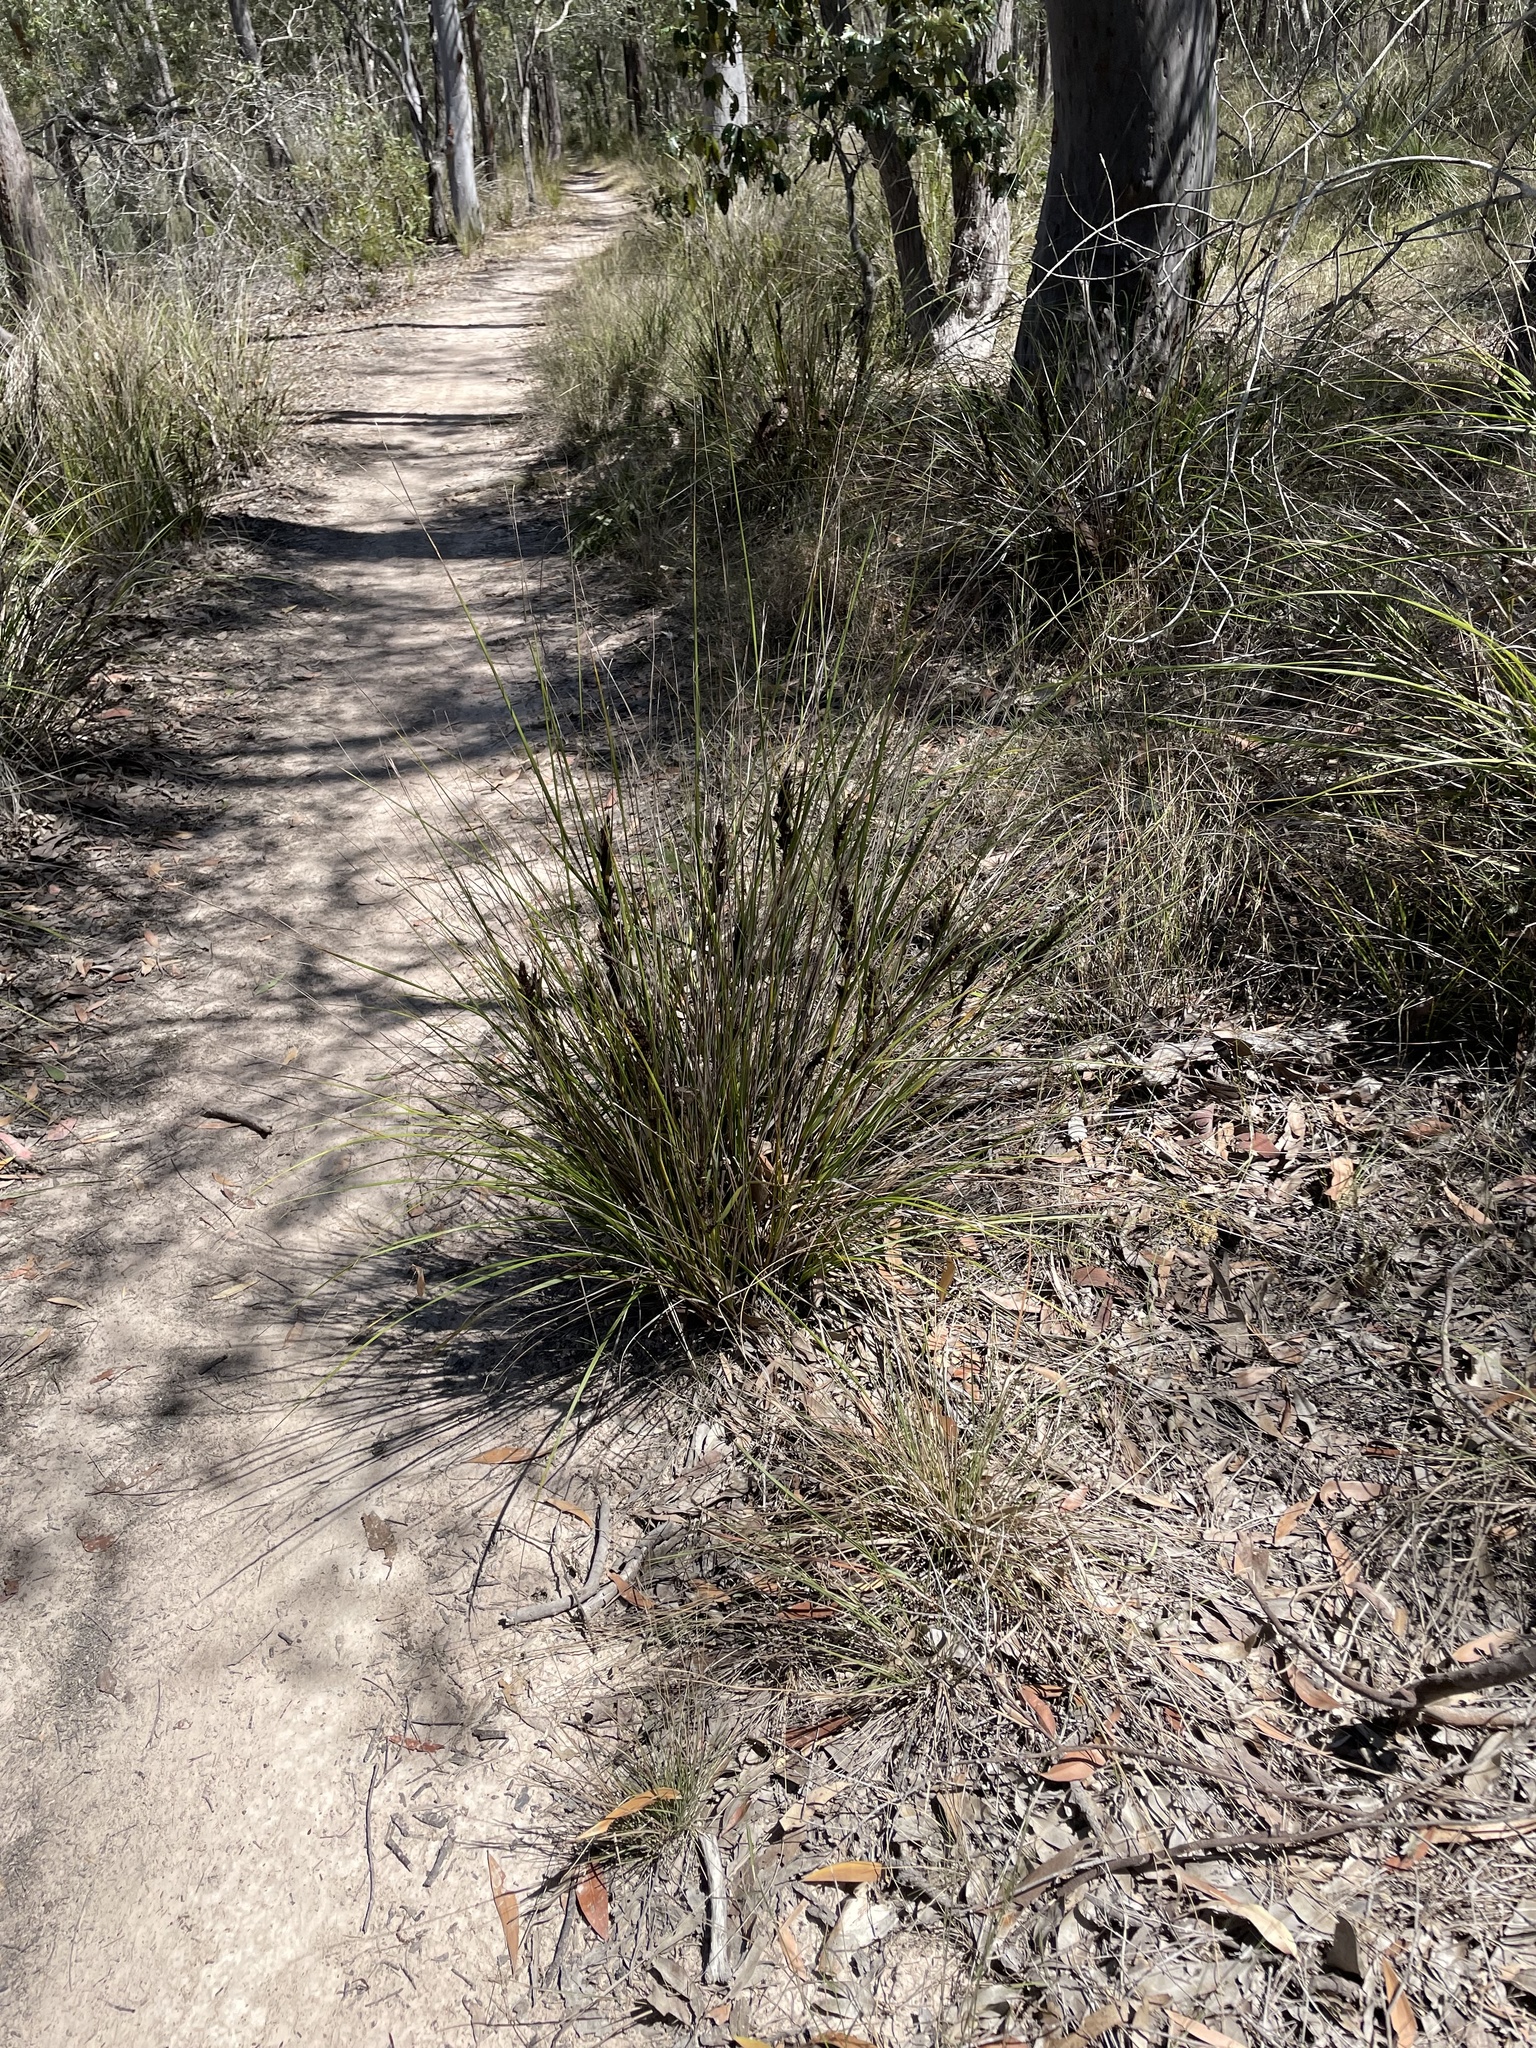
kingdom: Plantae
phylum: Tracheophyta
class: Liliopsida
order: Poales
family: Cyperaceae
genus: Gahnia
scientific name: Gahnia aspera
